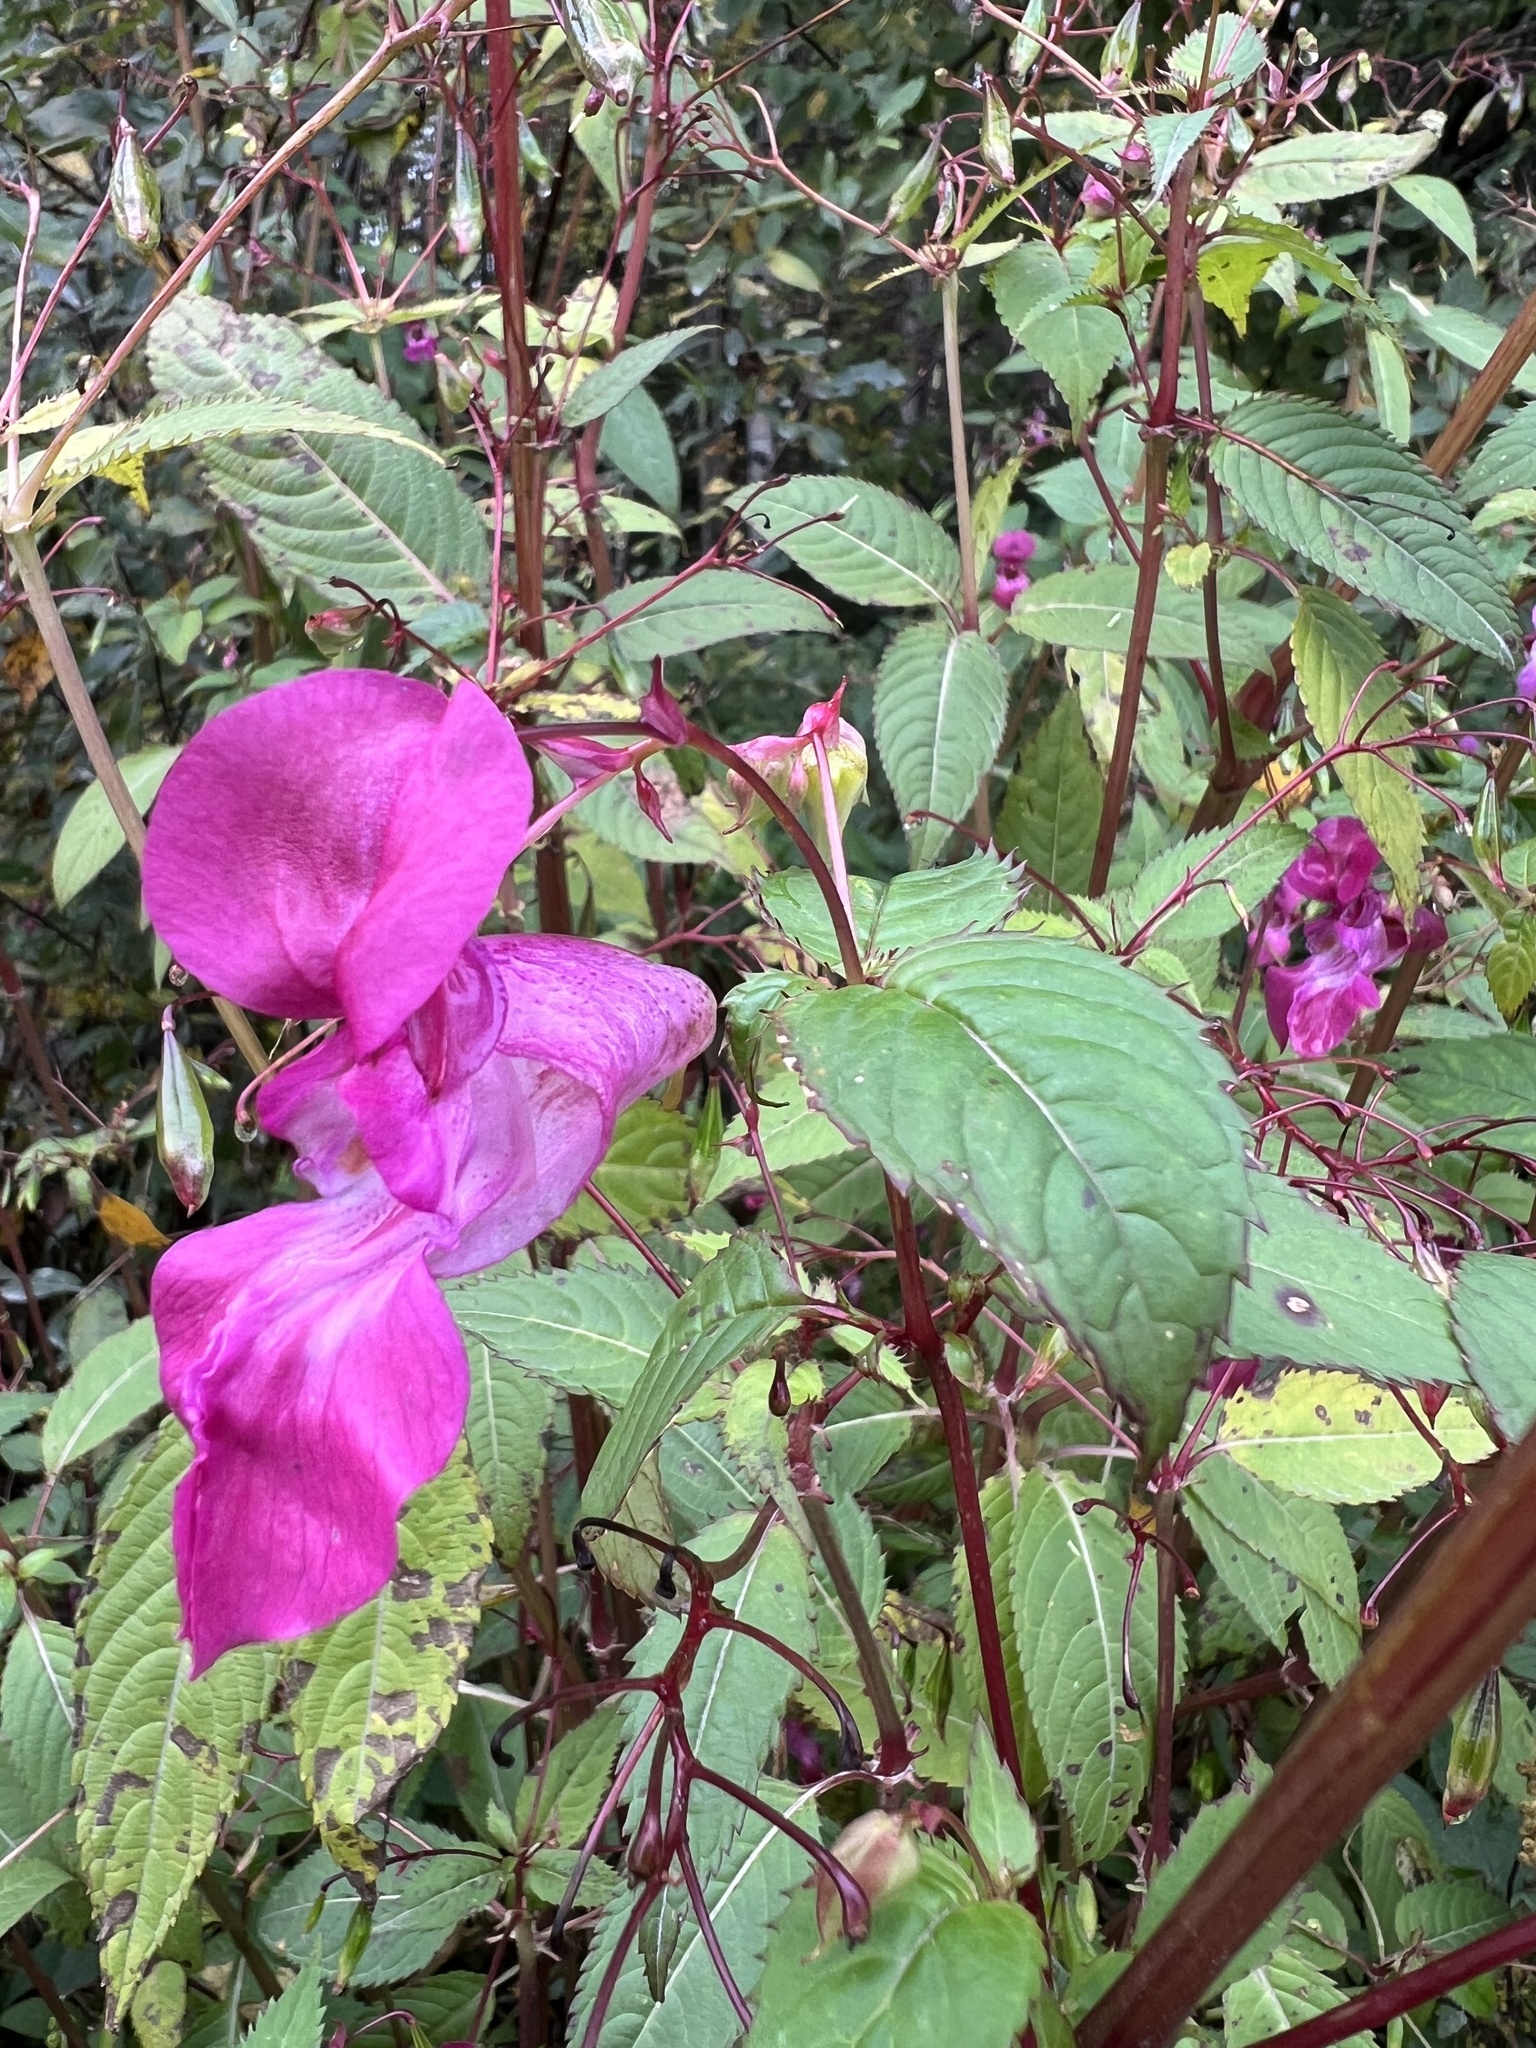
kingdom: Plantae
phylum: Tracheophyta
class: Magnoliopsida
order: Ericales
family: Balsaminaceae
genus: Impatiens
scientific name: Impatiens glandulifera
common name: Himalayan balsam
